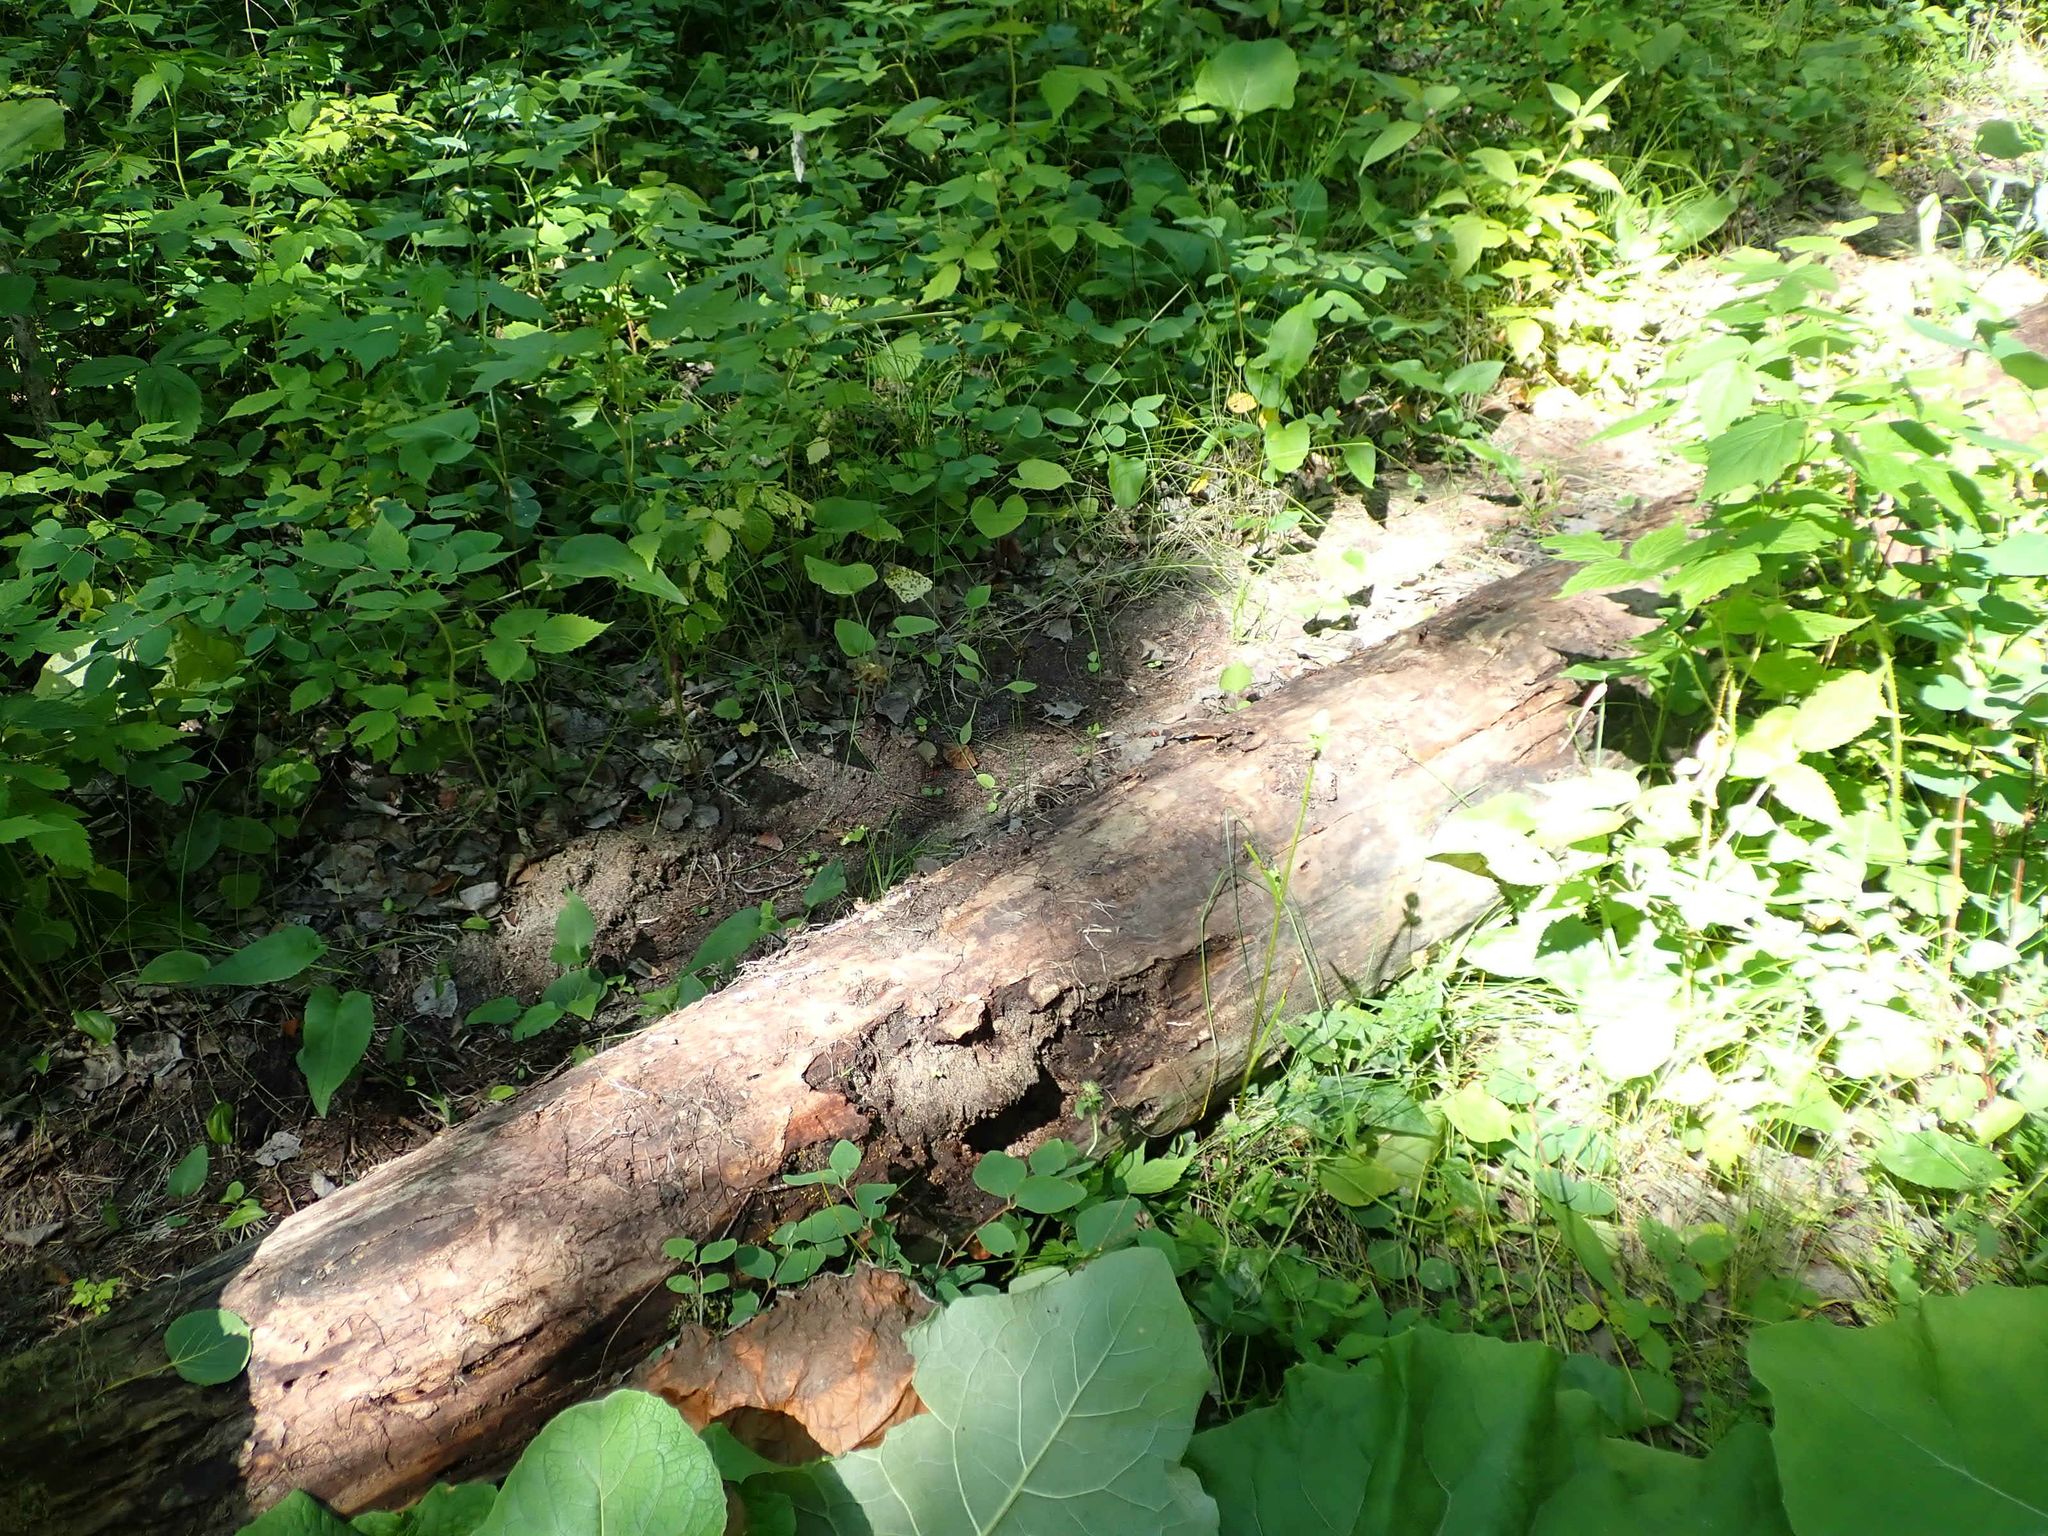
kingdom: Animalia
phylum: Chordata
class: Mammalia
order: Carnivora
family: Ursidae
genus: Ursus
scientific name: Ursus americanus
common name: American black bear
